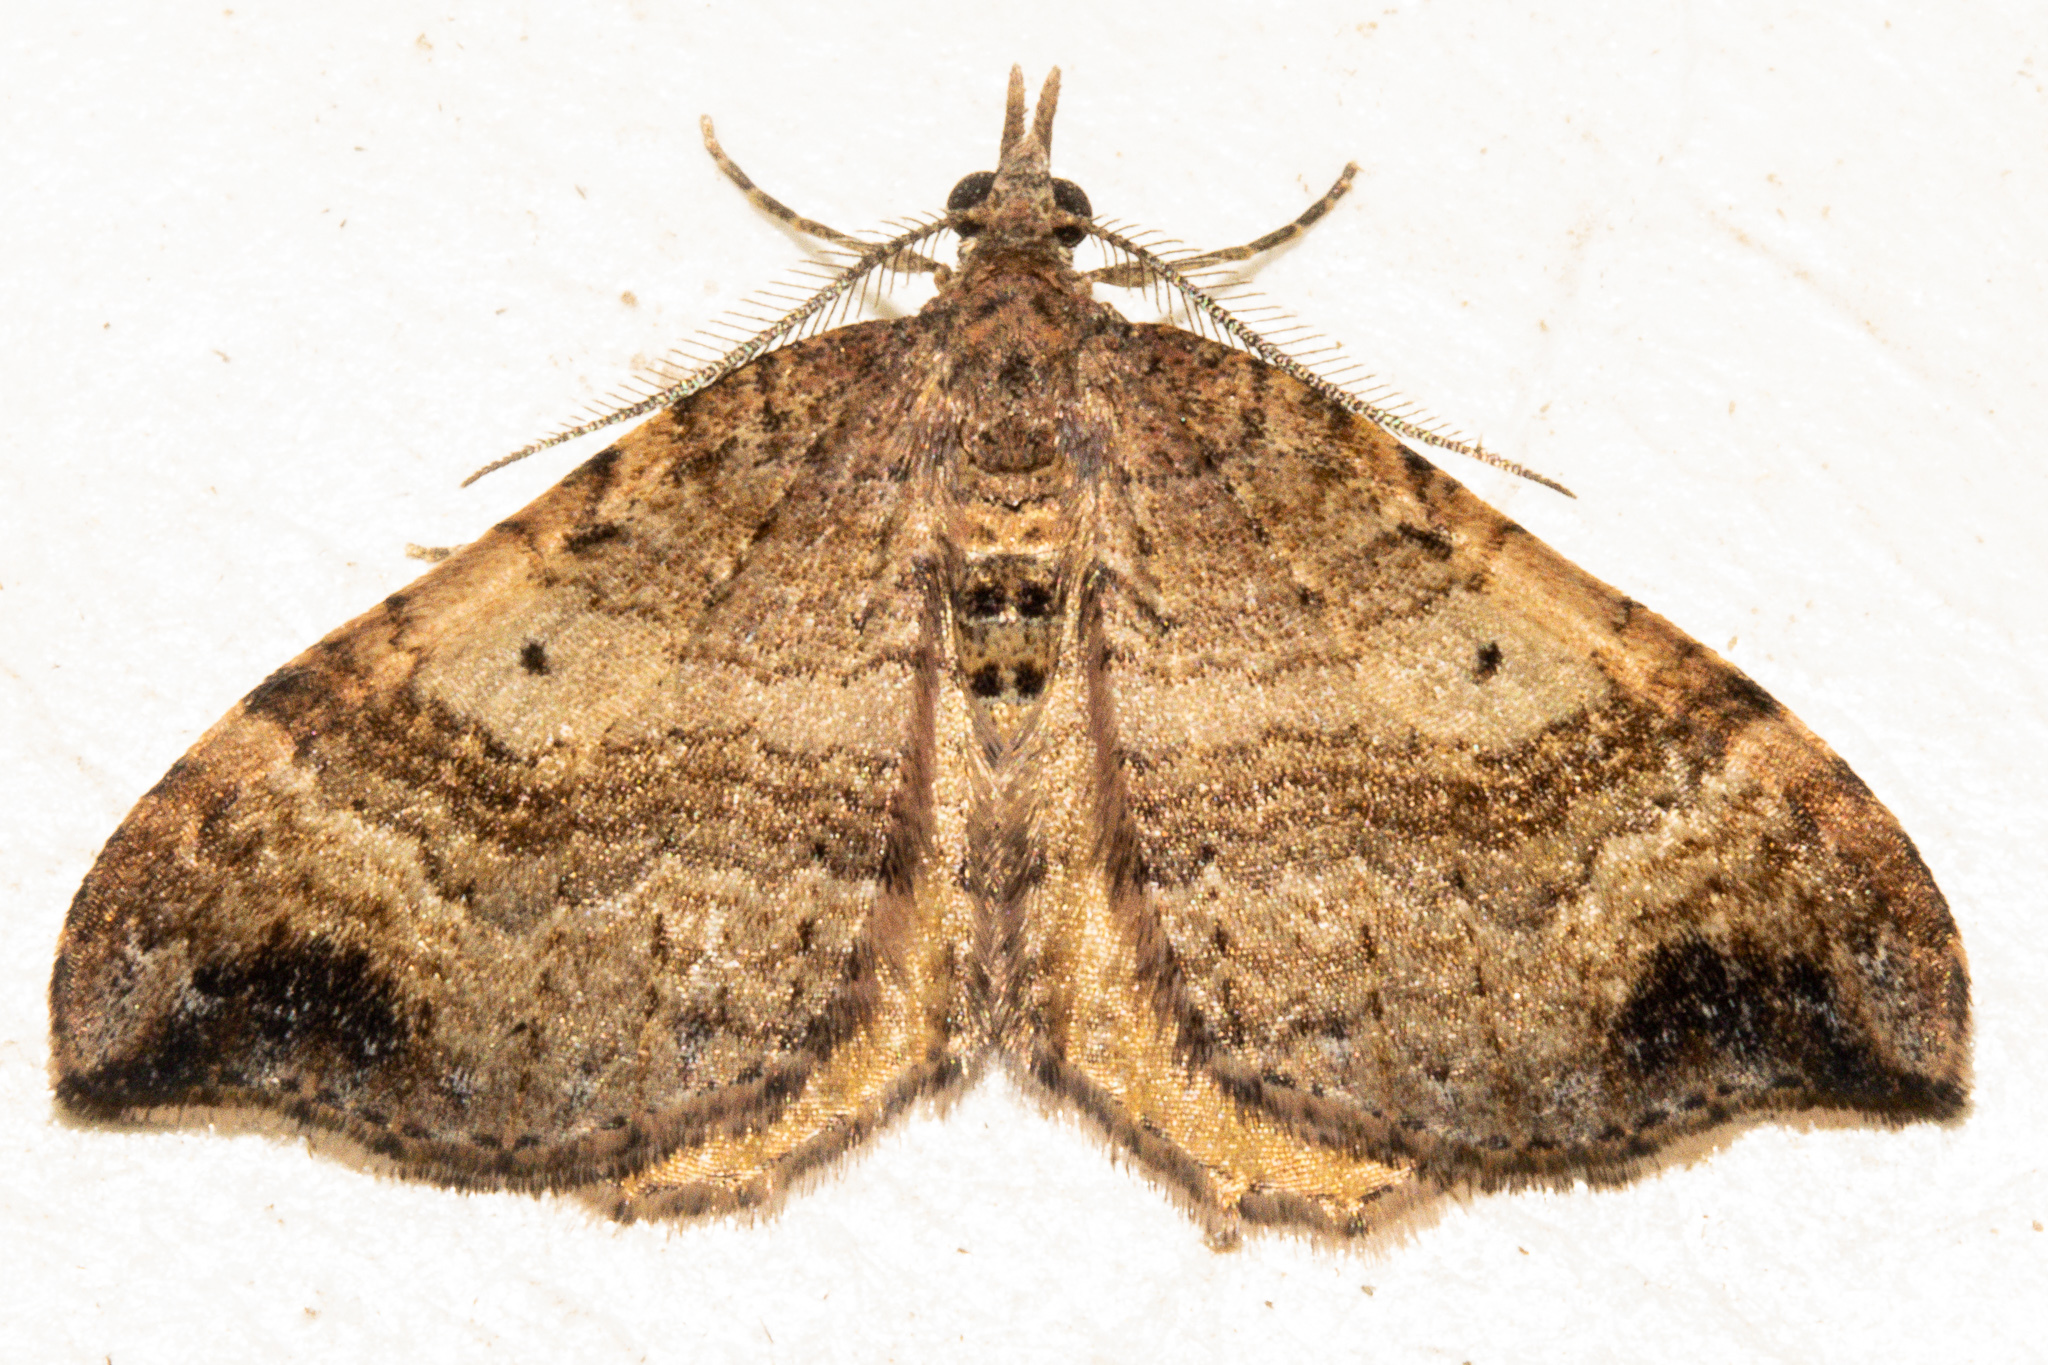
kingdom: Animalia
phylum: Arthropoda
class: Insecta
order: Lepidoptera
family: Geometridae
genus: Homodotis
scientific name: Homodotis megaspilata
